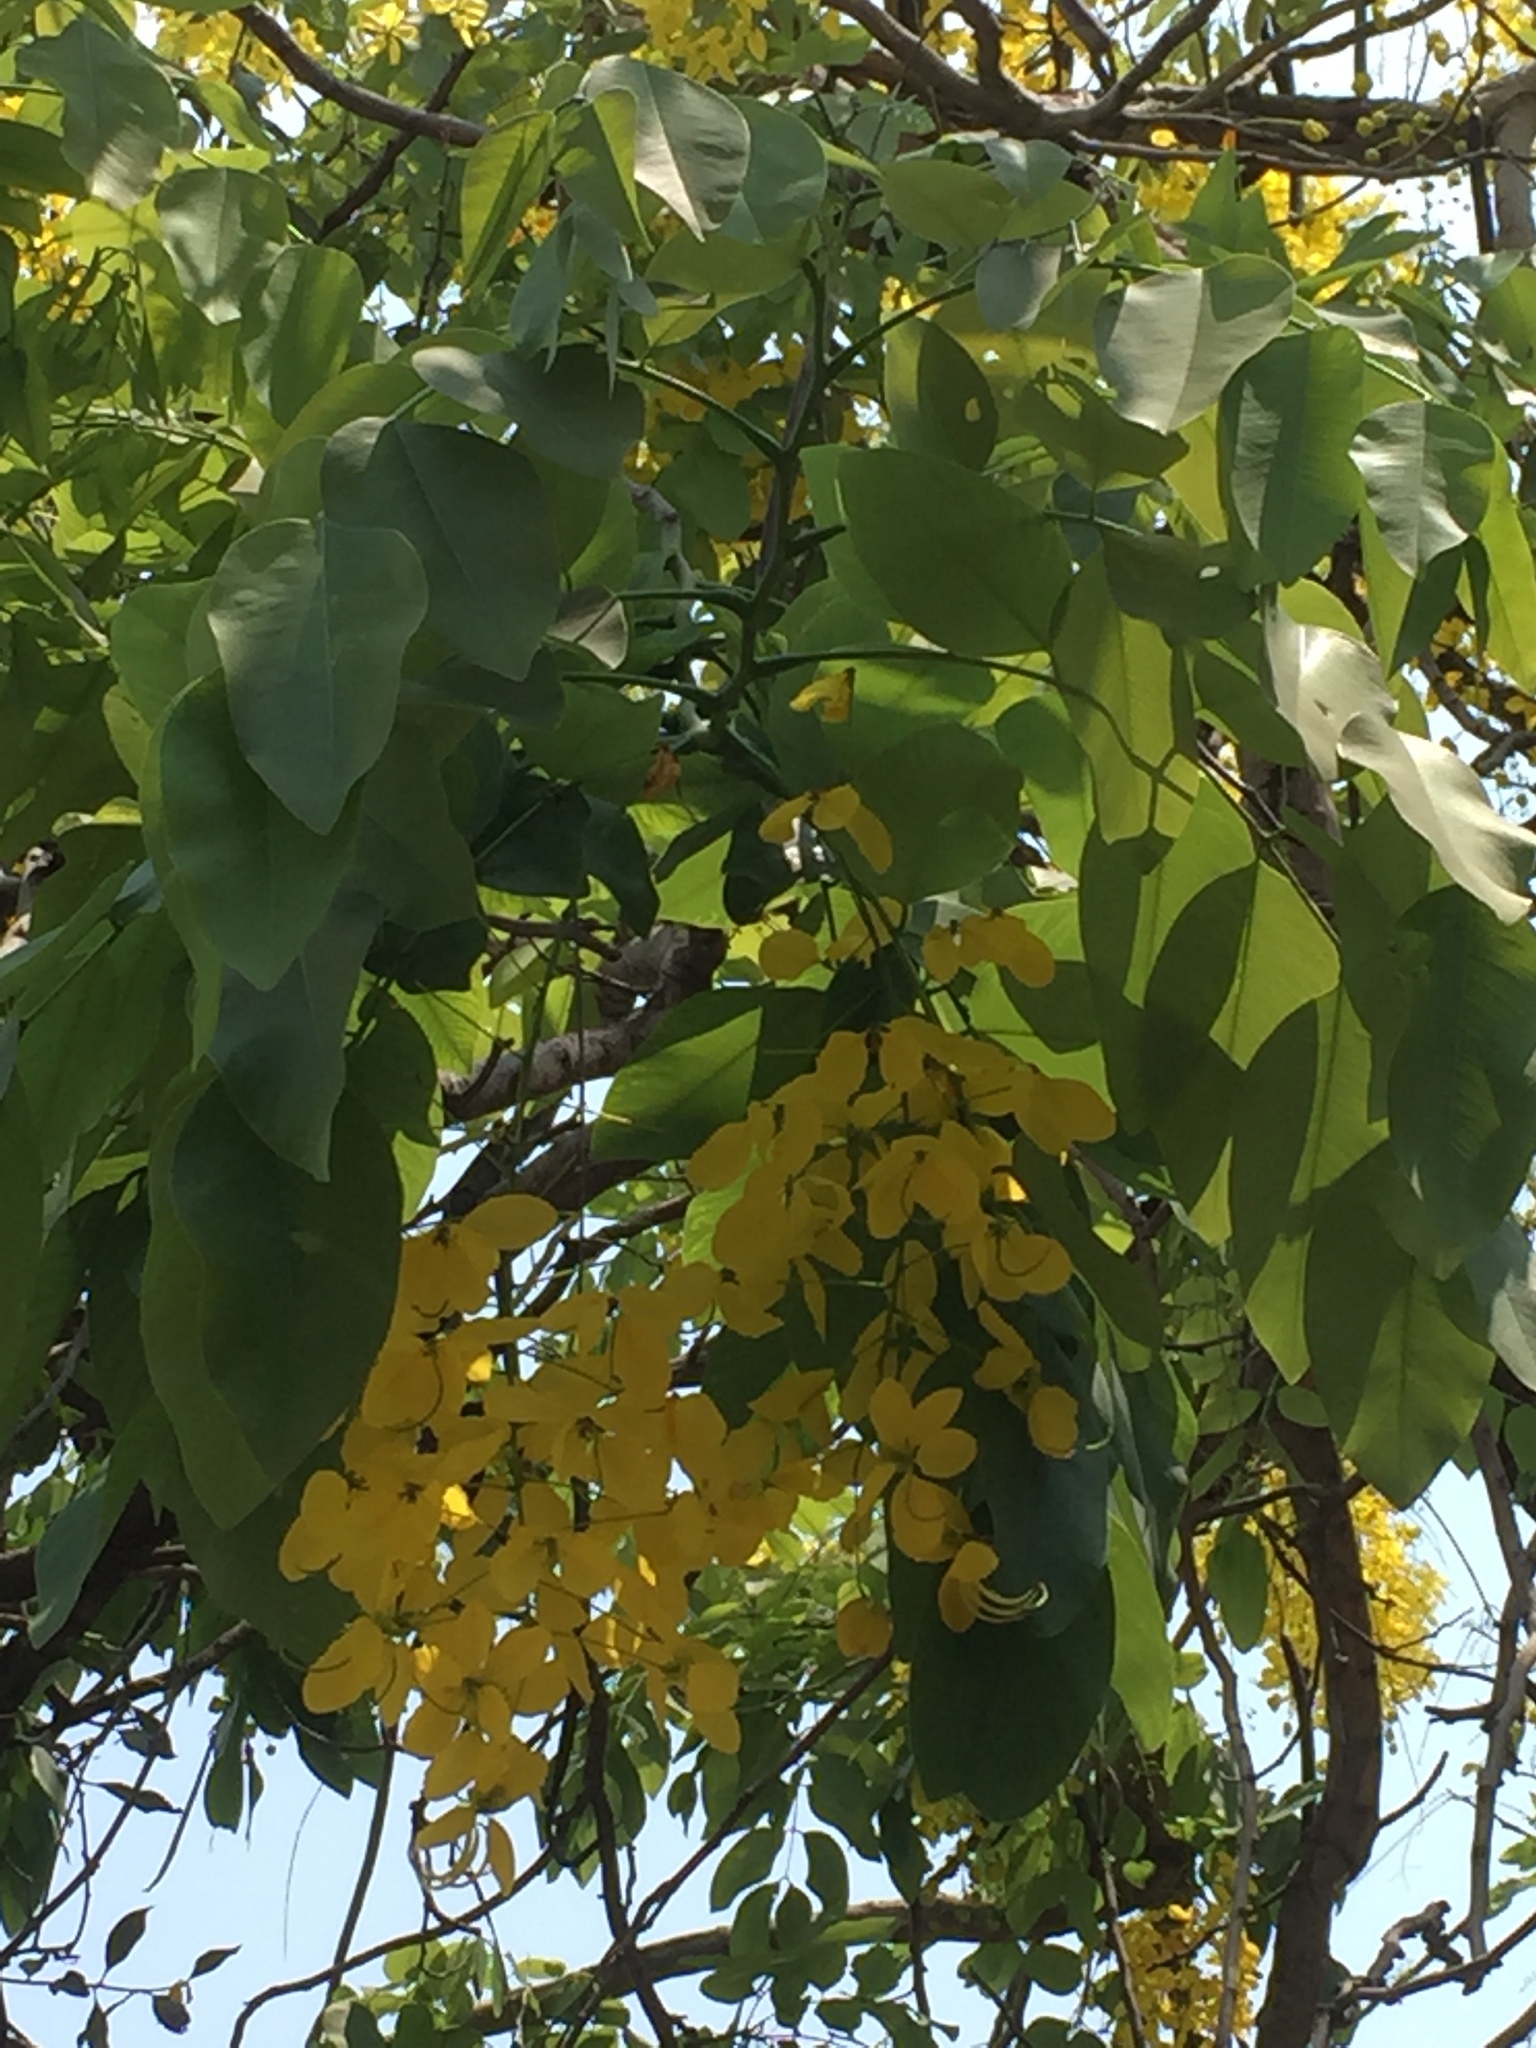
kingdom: Plantae
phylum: Tracheophyta
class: Magnoliopsida
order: Fabales
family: Fabaceae
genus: Cassia
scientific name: Cassia fistula
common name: Golden shower
